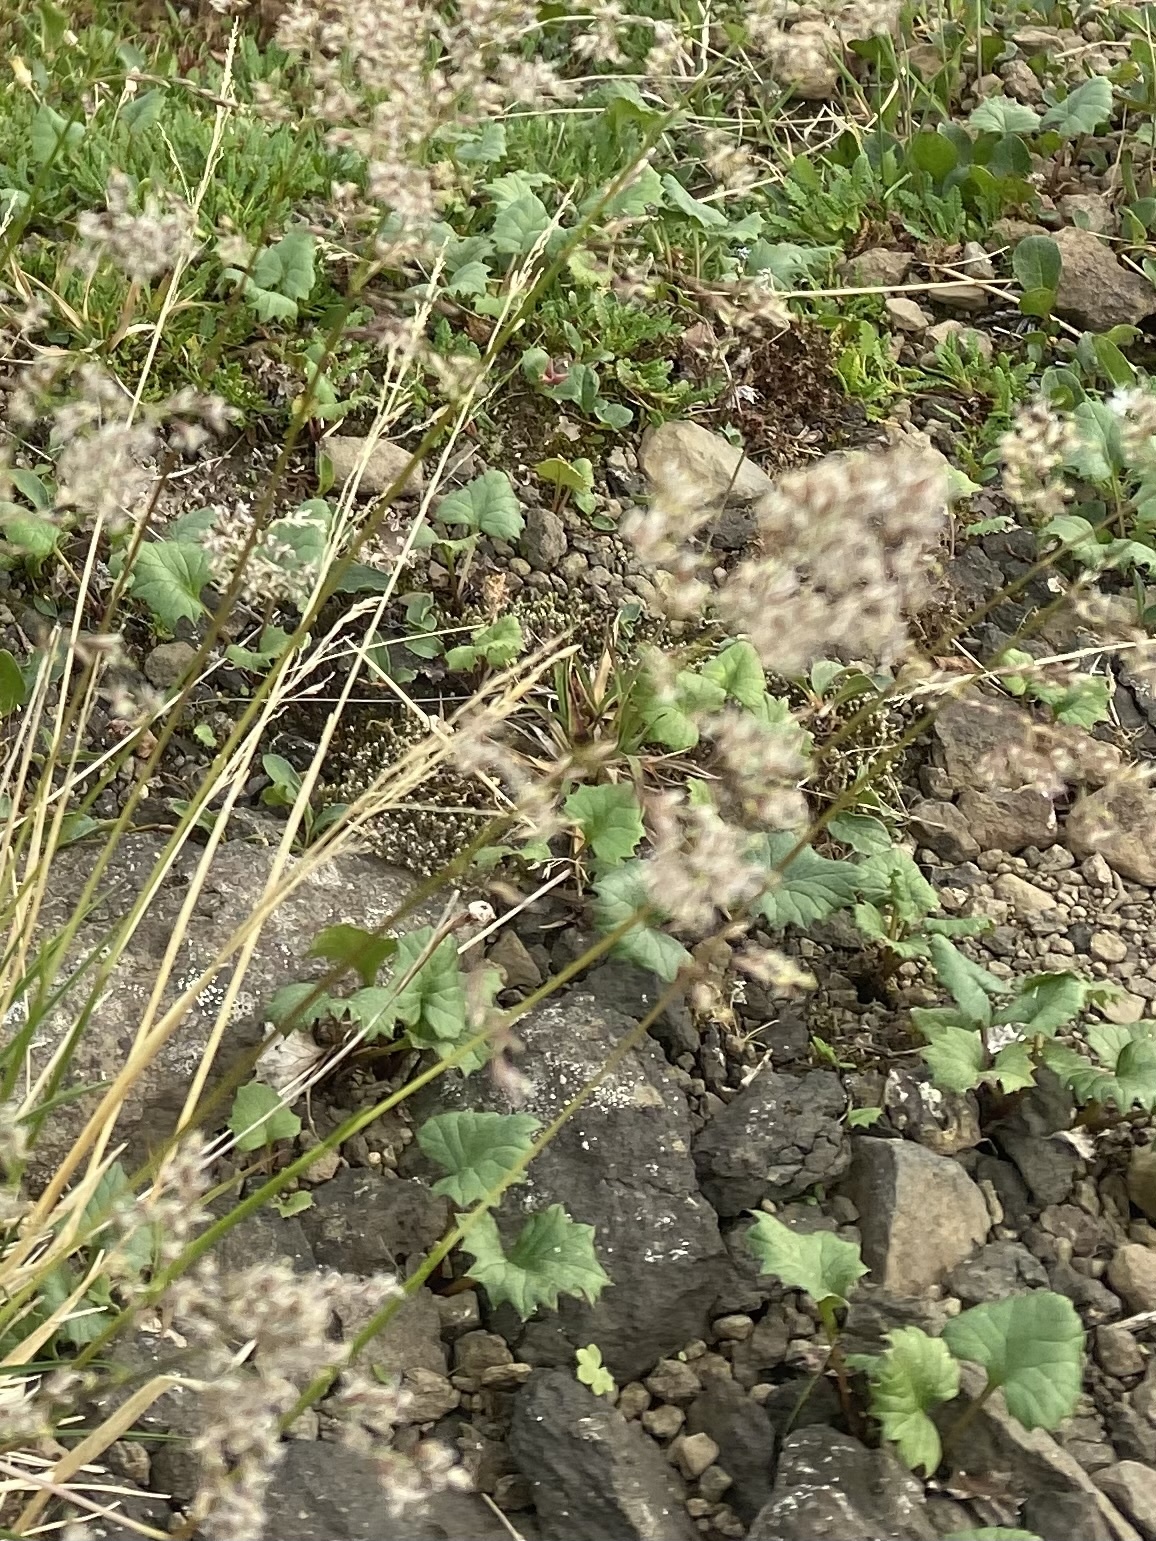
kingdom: Plantae
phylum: Tracheophyta
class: Magnoliopsida
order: Asterales
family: Asteraceae
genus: Endocellion
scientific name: Endocellion glaciale
